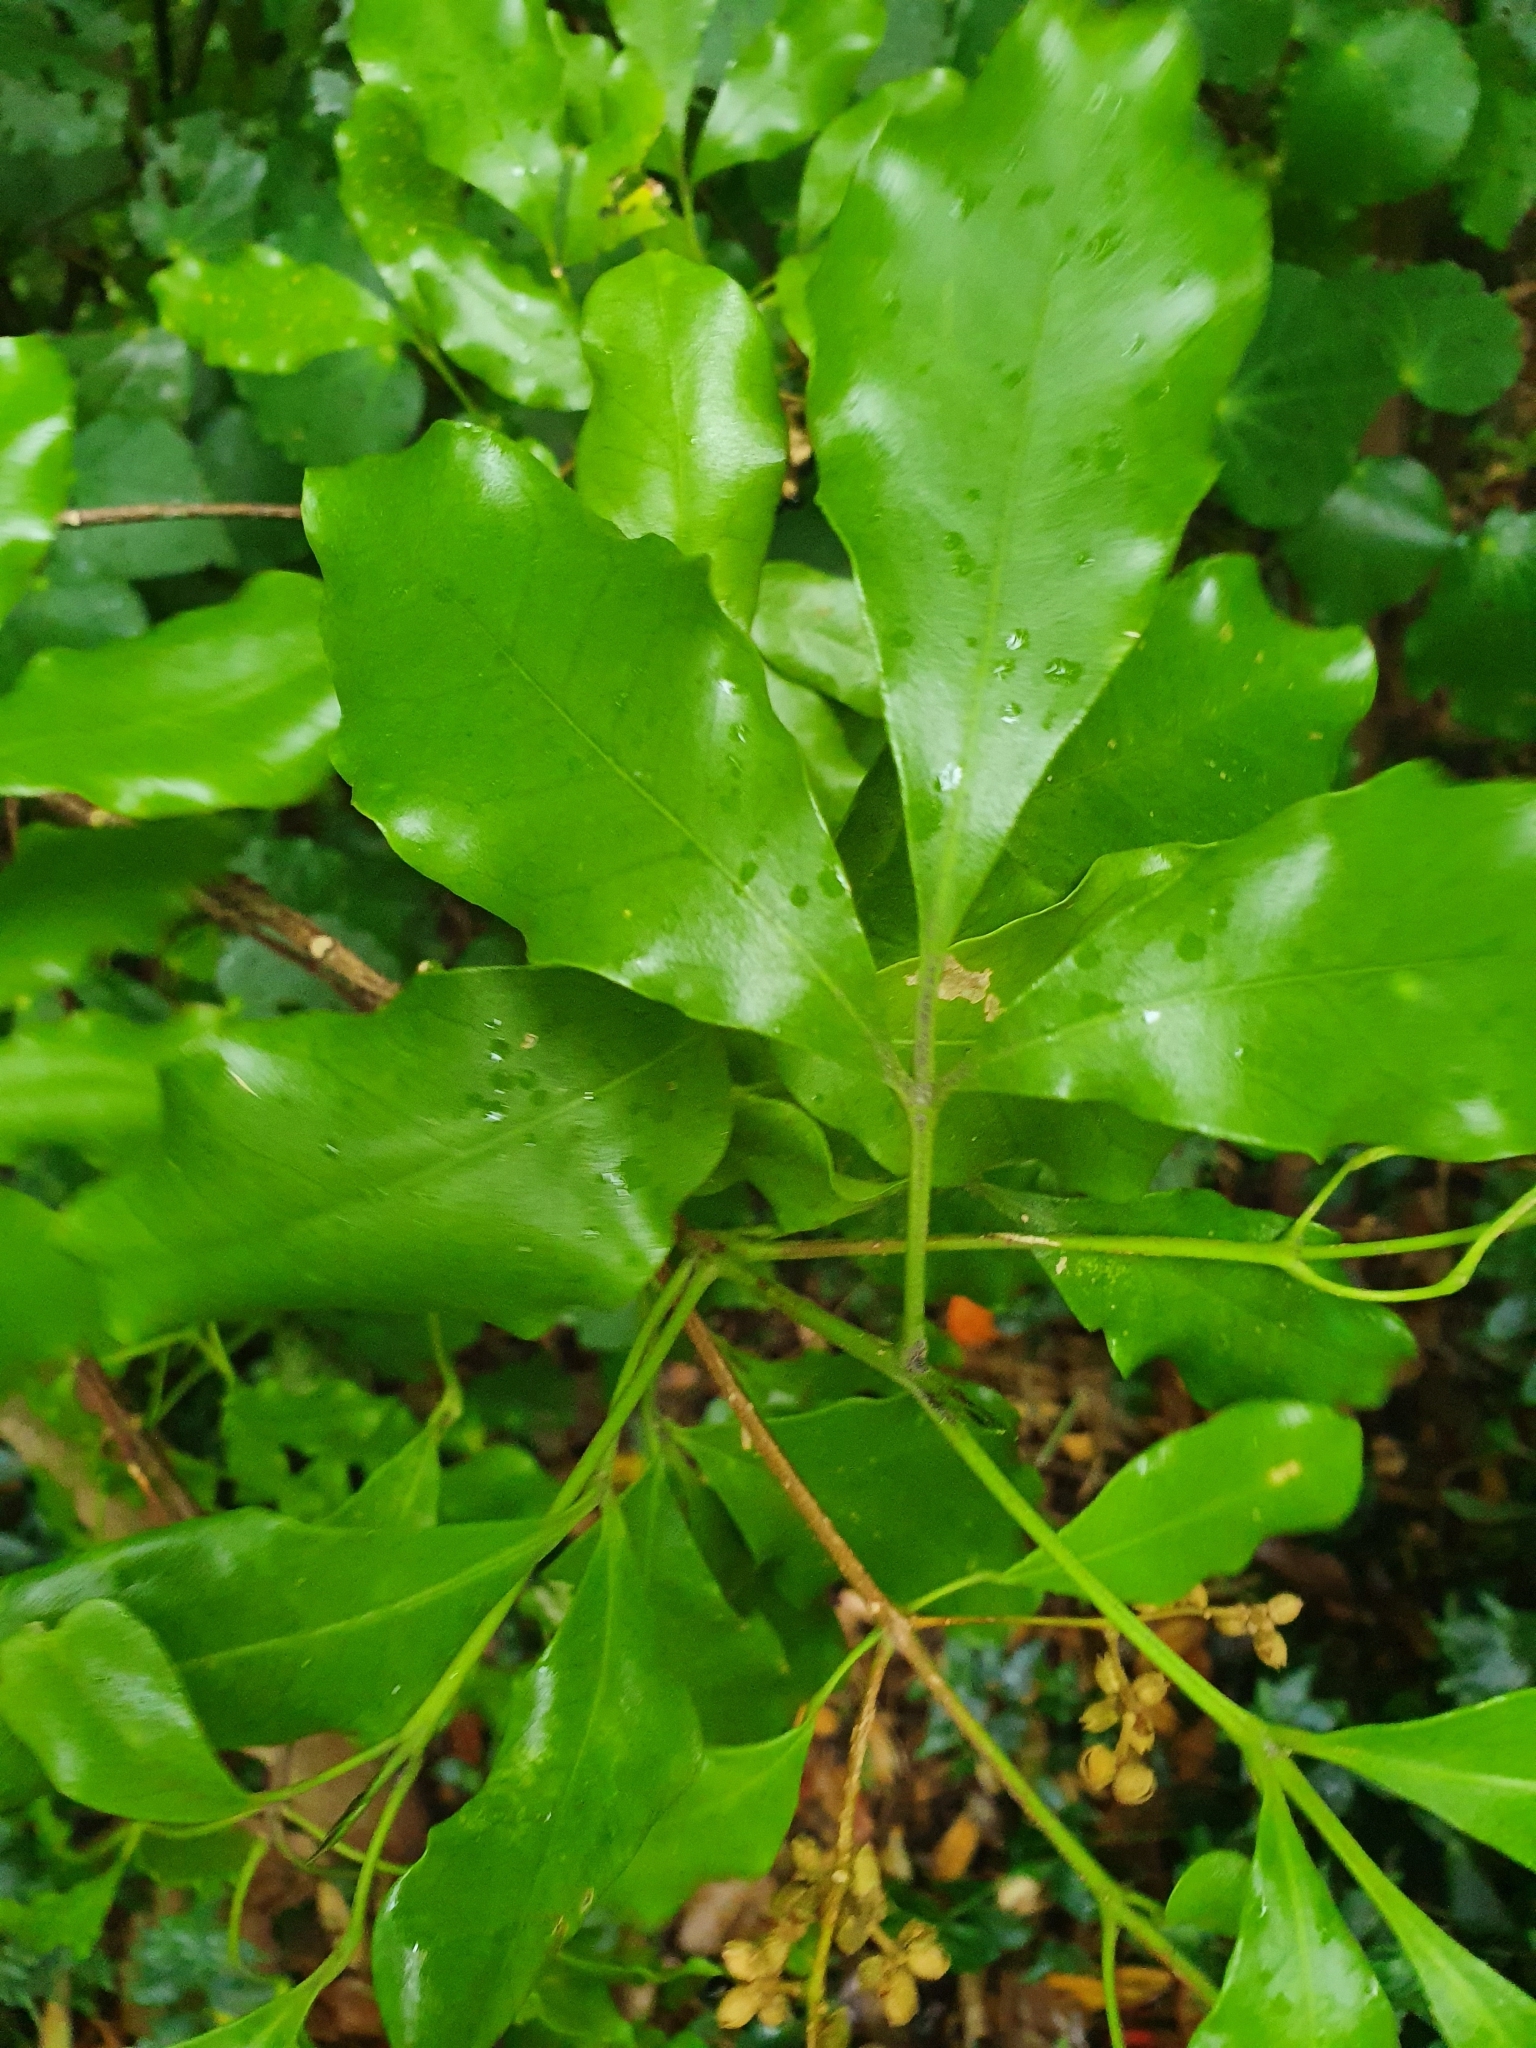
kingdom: Plantae
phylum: Tracheophyta
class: Magnoliopsida
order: Sapindales
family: Rutaceae
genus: Melicope
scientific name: Melicope ternata
